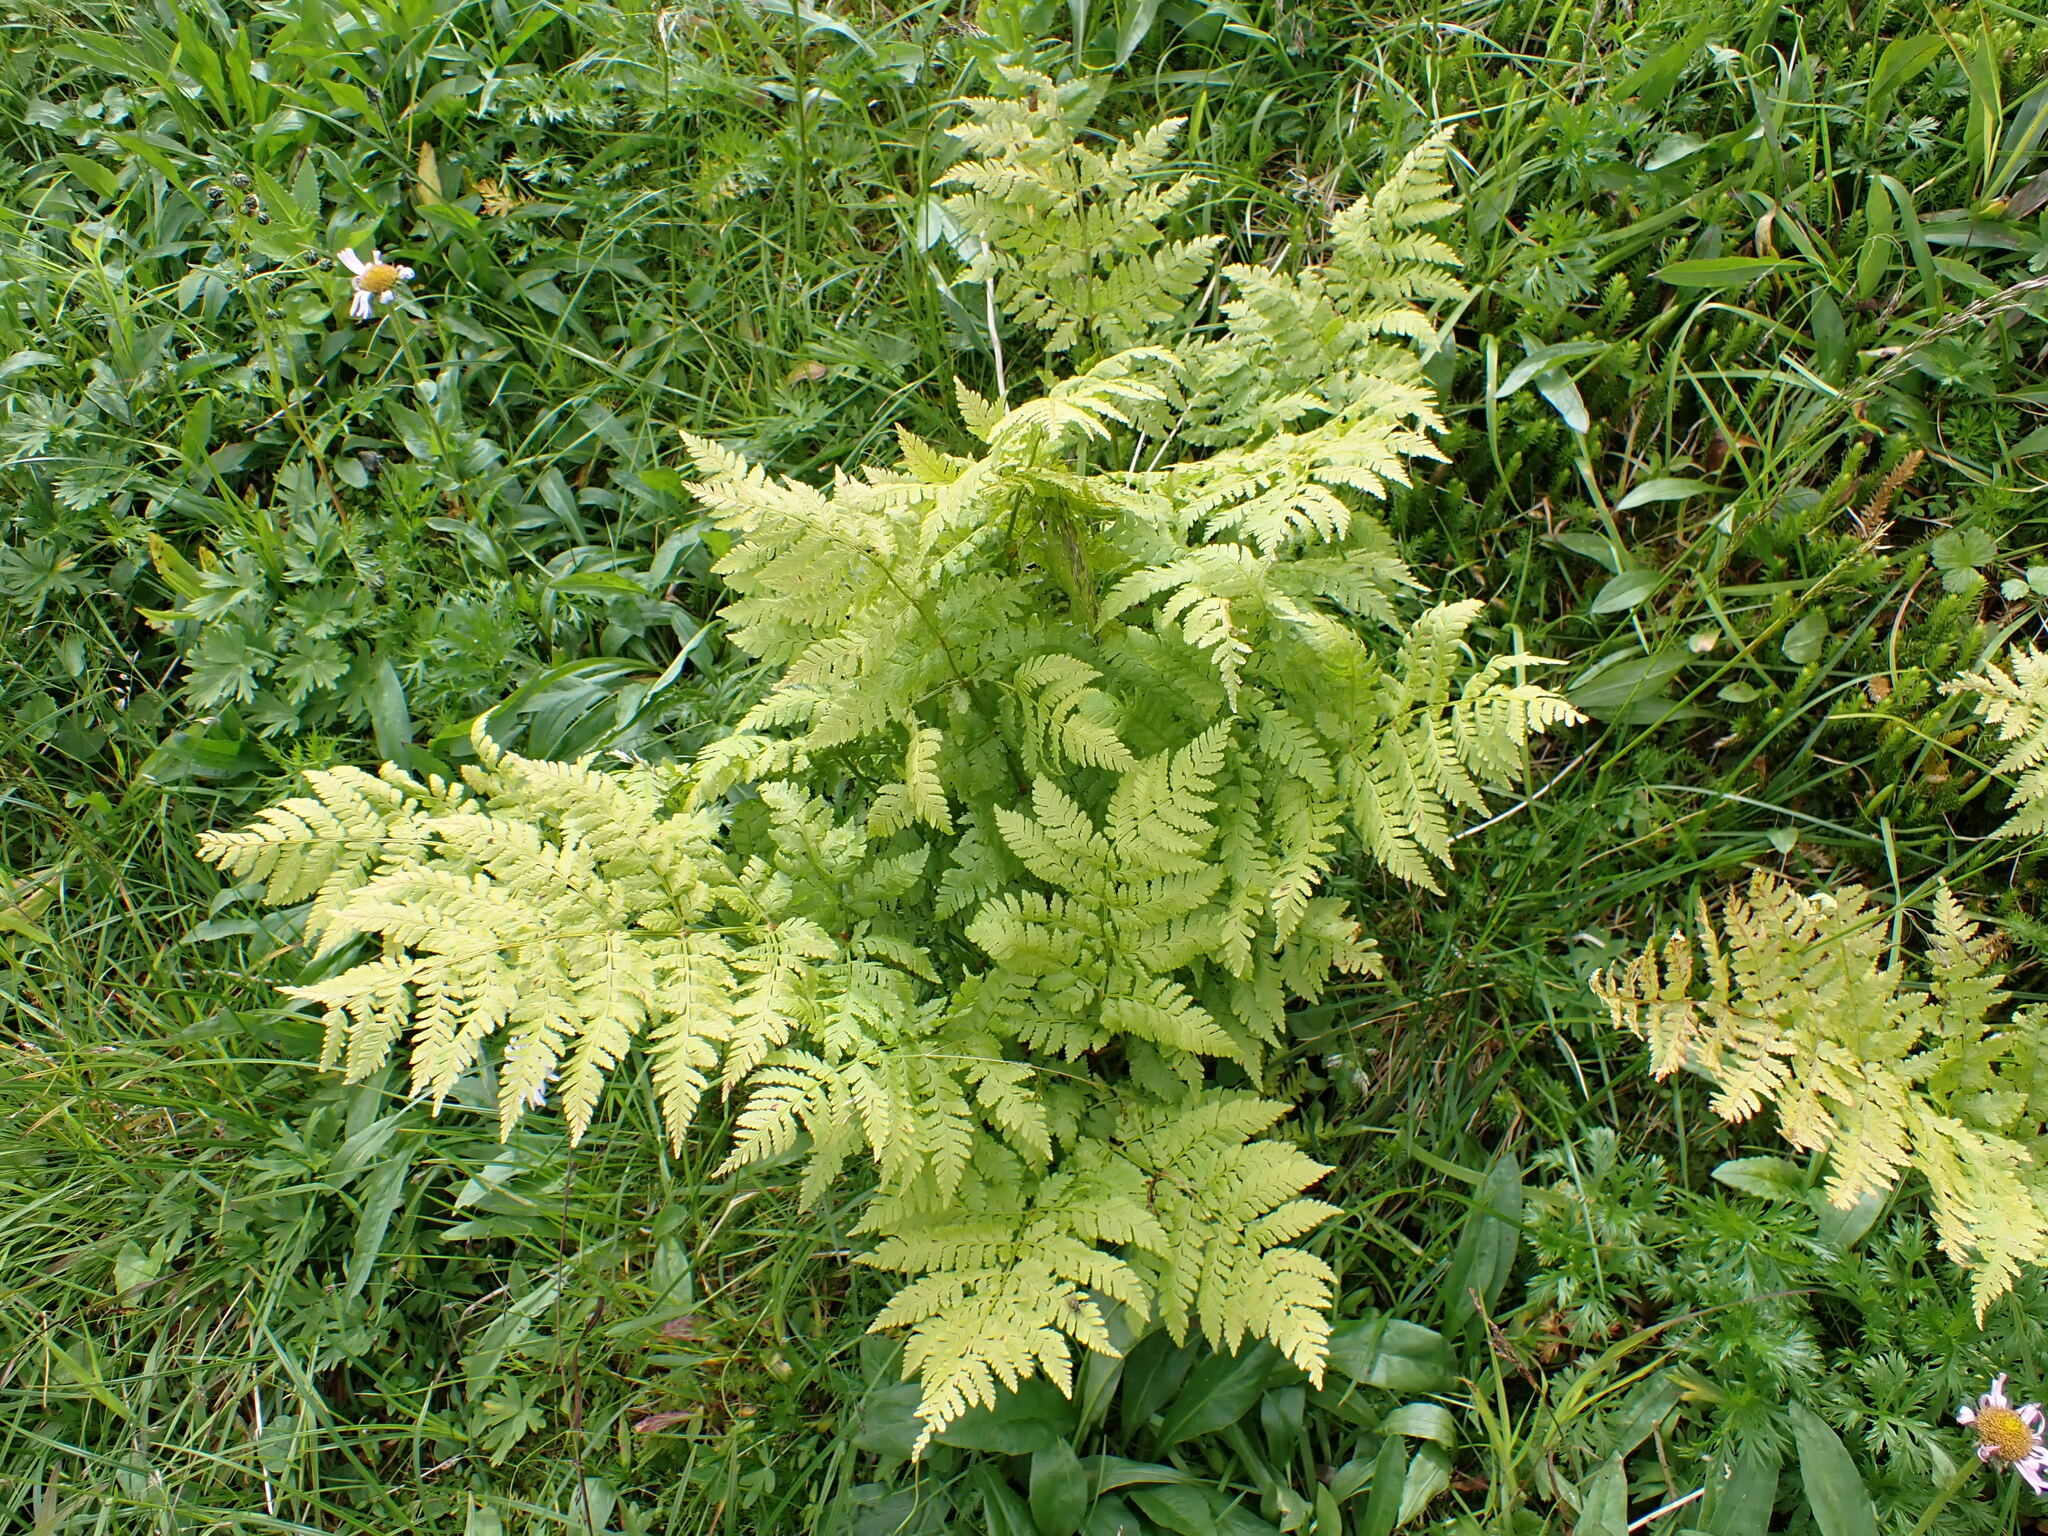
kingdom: Plantae
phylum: Tracheophyta
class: Polypodiopsida
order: Polypodiales
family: Dryopteridaceae
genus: Dryopteris
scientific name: Dryopteris expansa
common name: Northern buckler fern
